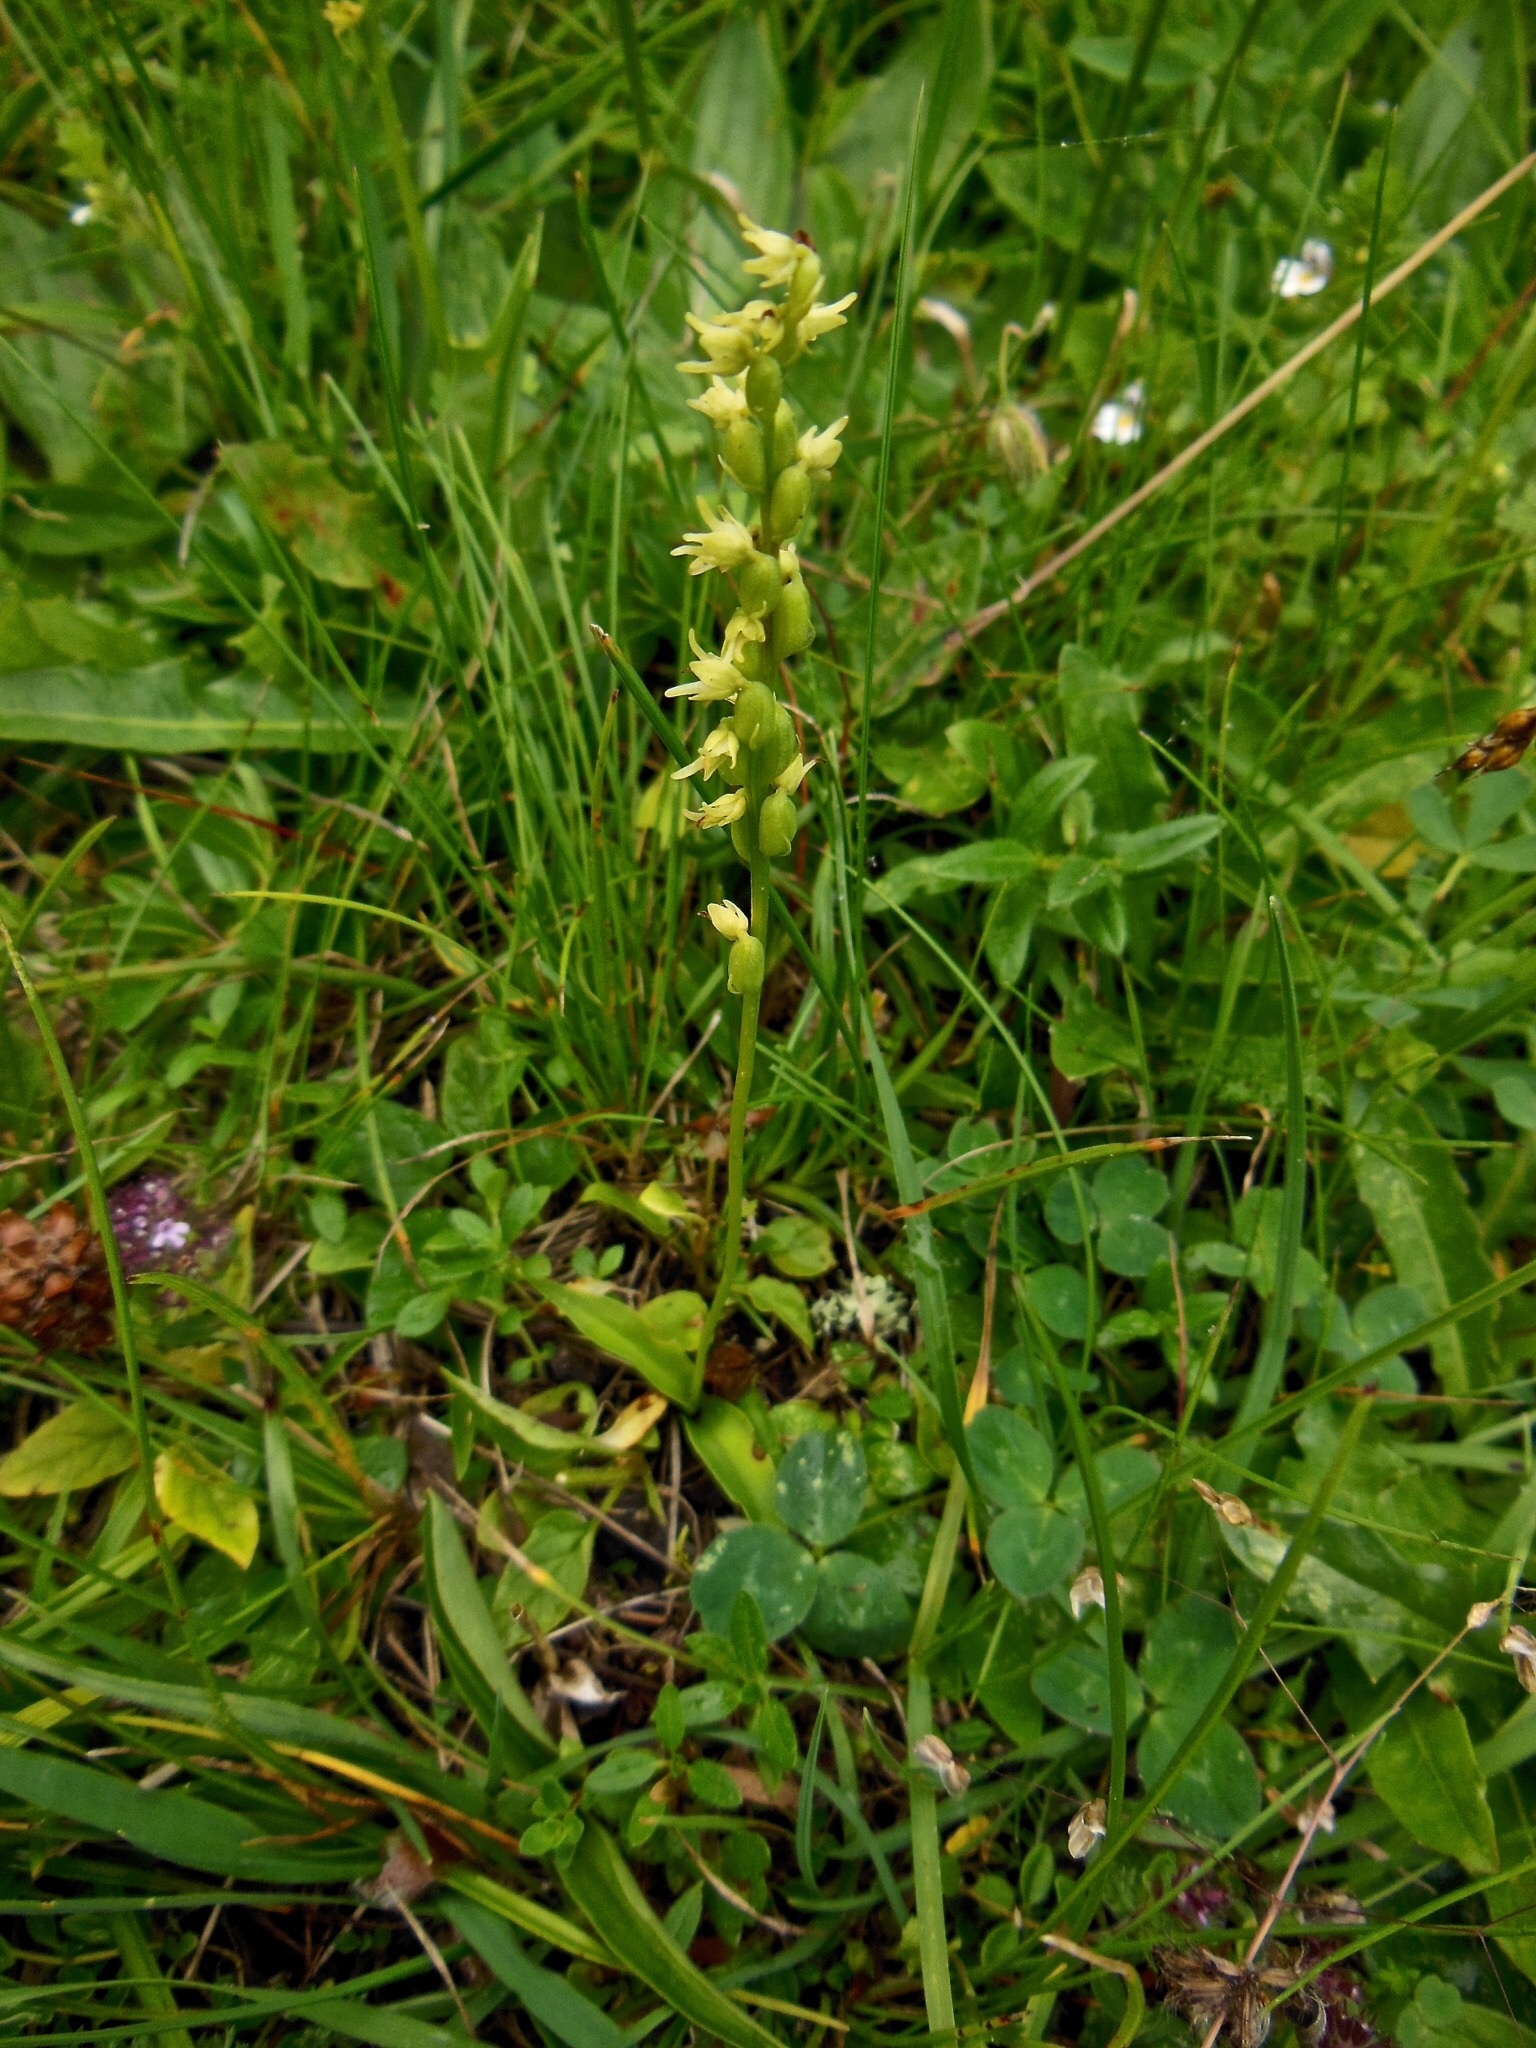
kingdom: Plantae
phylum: Tracheophyta
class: Liliopsida
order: Asparagales
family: Orchidaceae
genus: Herminium
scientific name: Herminium monorchis
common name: Musk orchid
